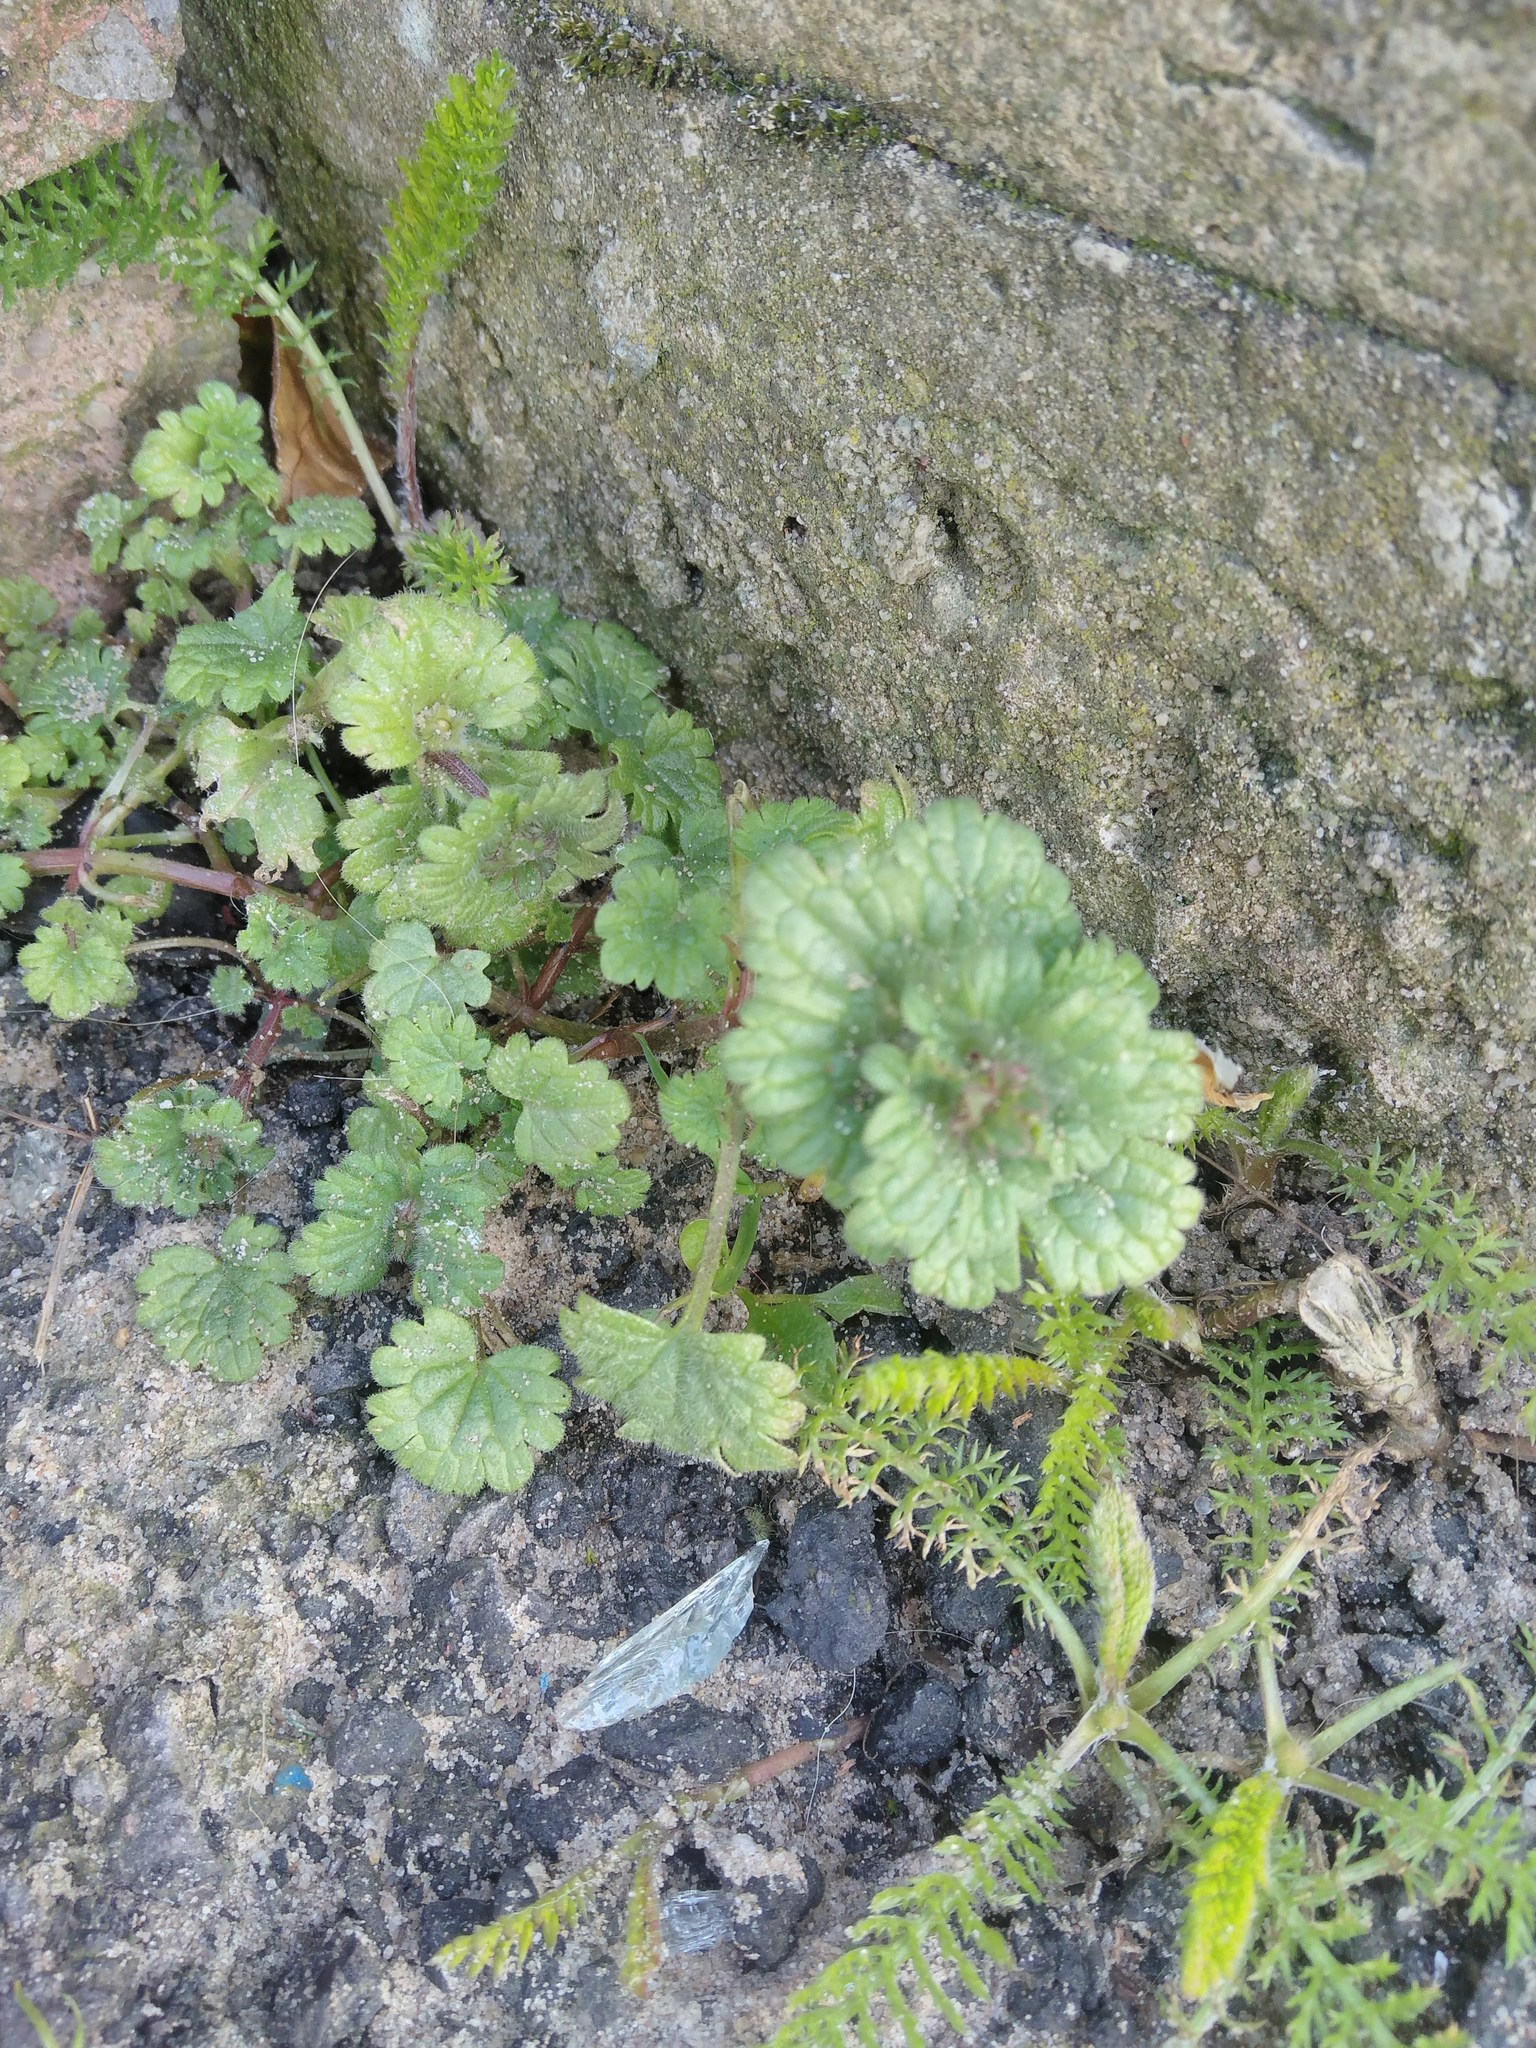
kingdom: Plantae
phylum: Tracheophyta
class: Magnoliopsida
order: Lamiales
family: Lamiaceae
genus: Lamium
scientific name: Lamium amplexicaule
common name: Henbit dead-nettle
